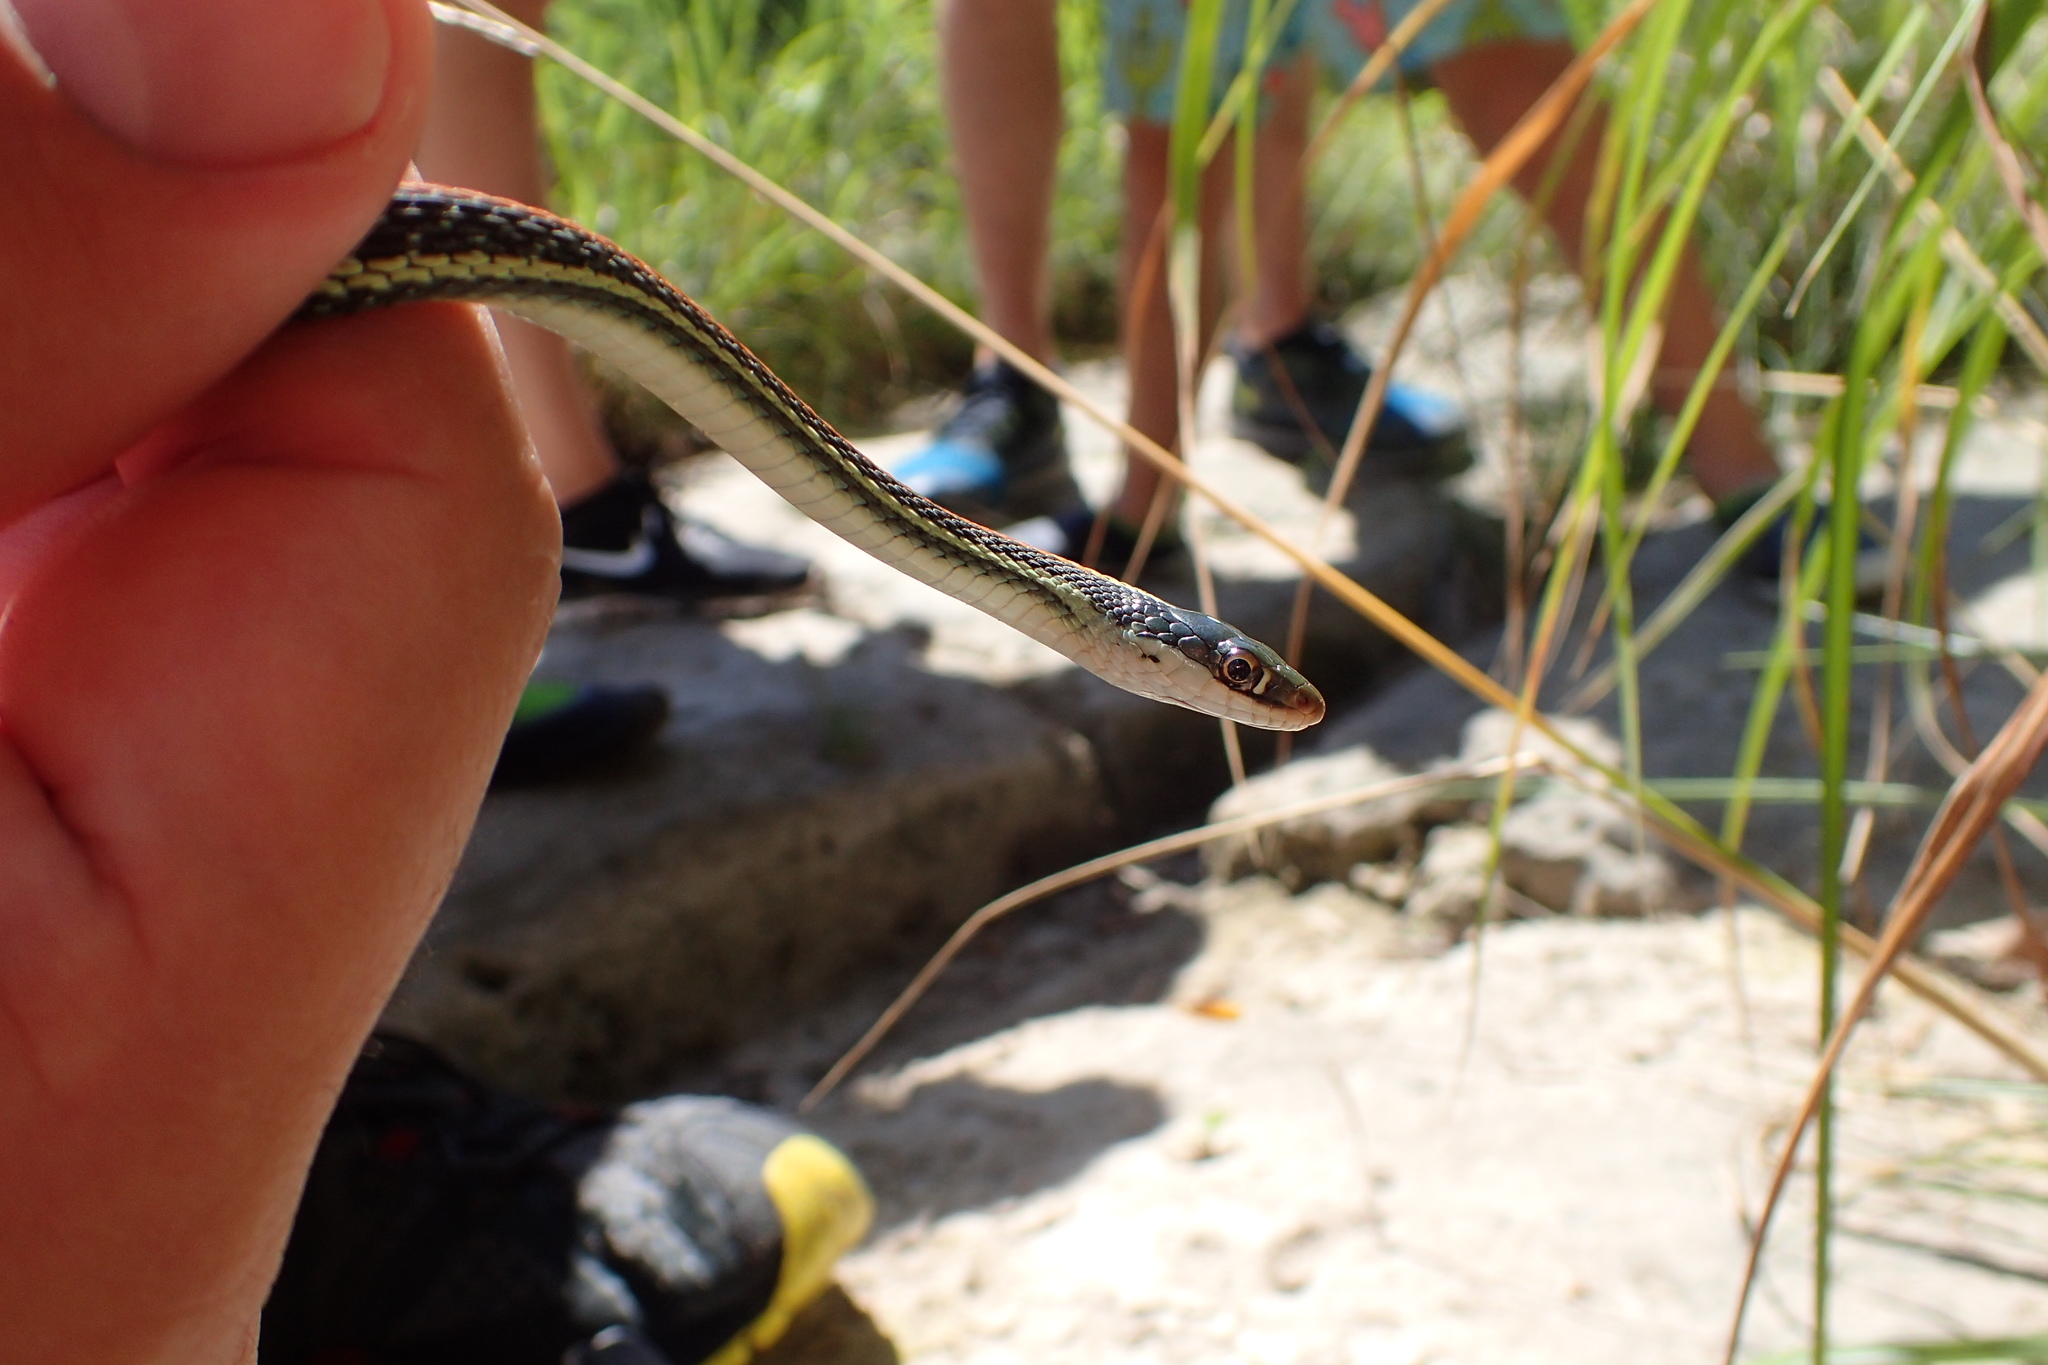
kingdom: Animalia
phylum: Chordata
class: Squamata
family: Colubridae
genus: Thamnophis
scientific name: Thamnophis proximus
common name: Western ribbon snake
